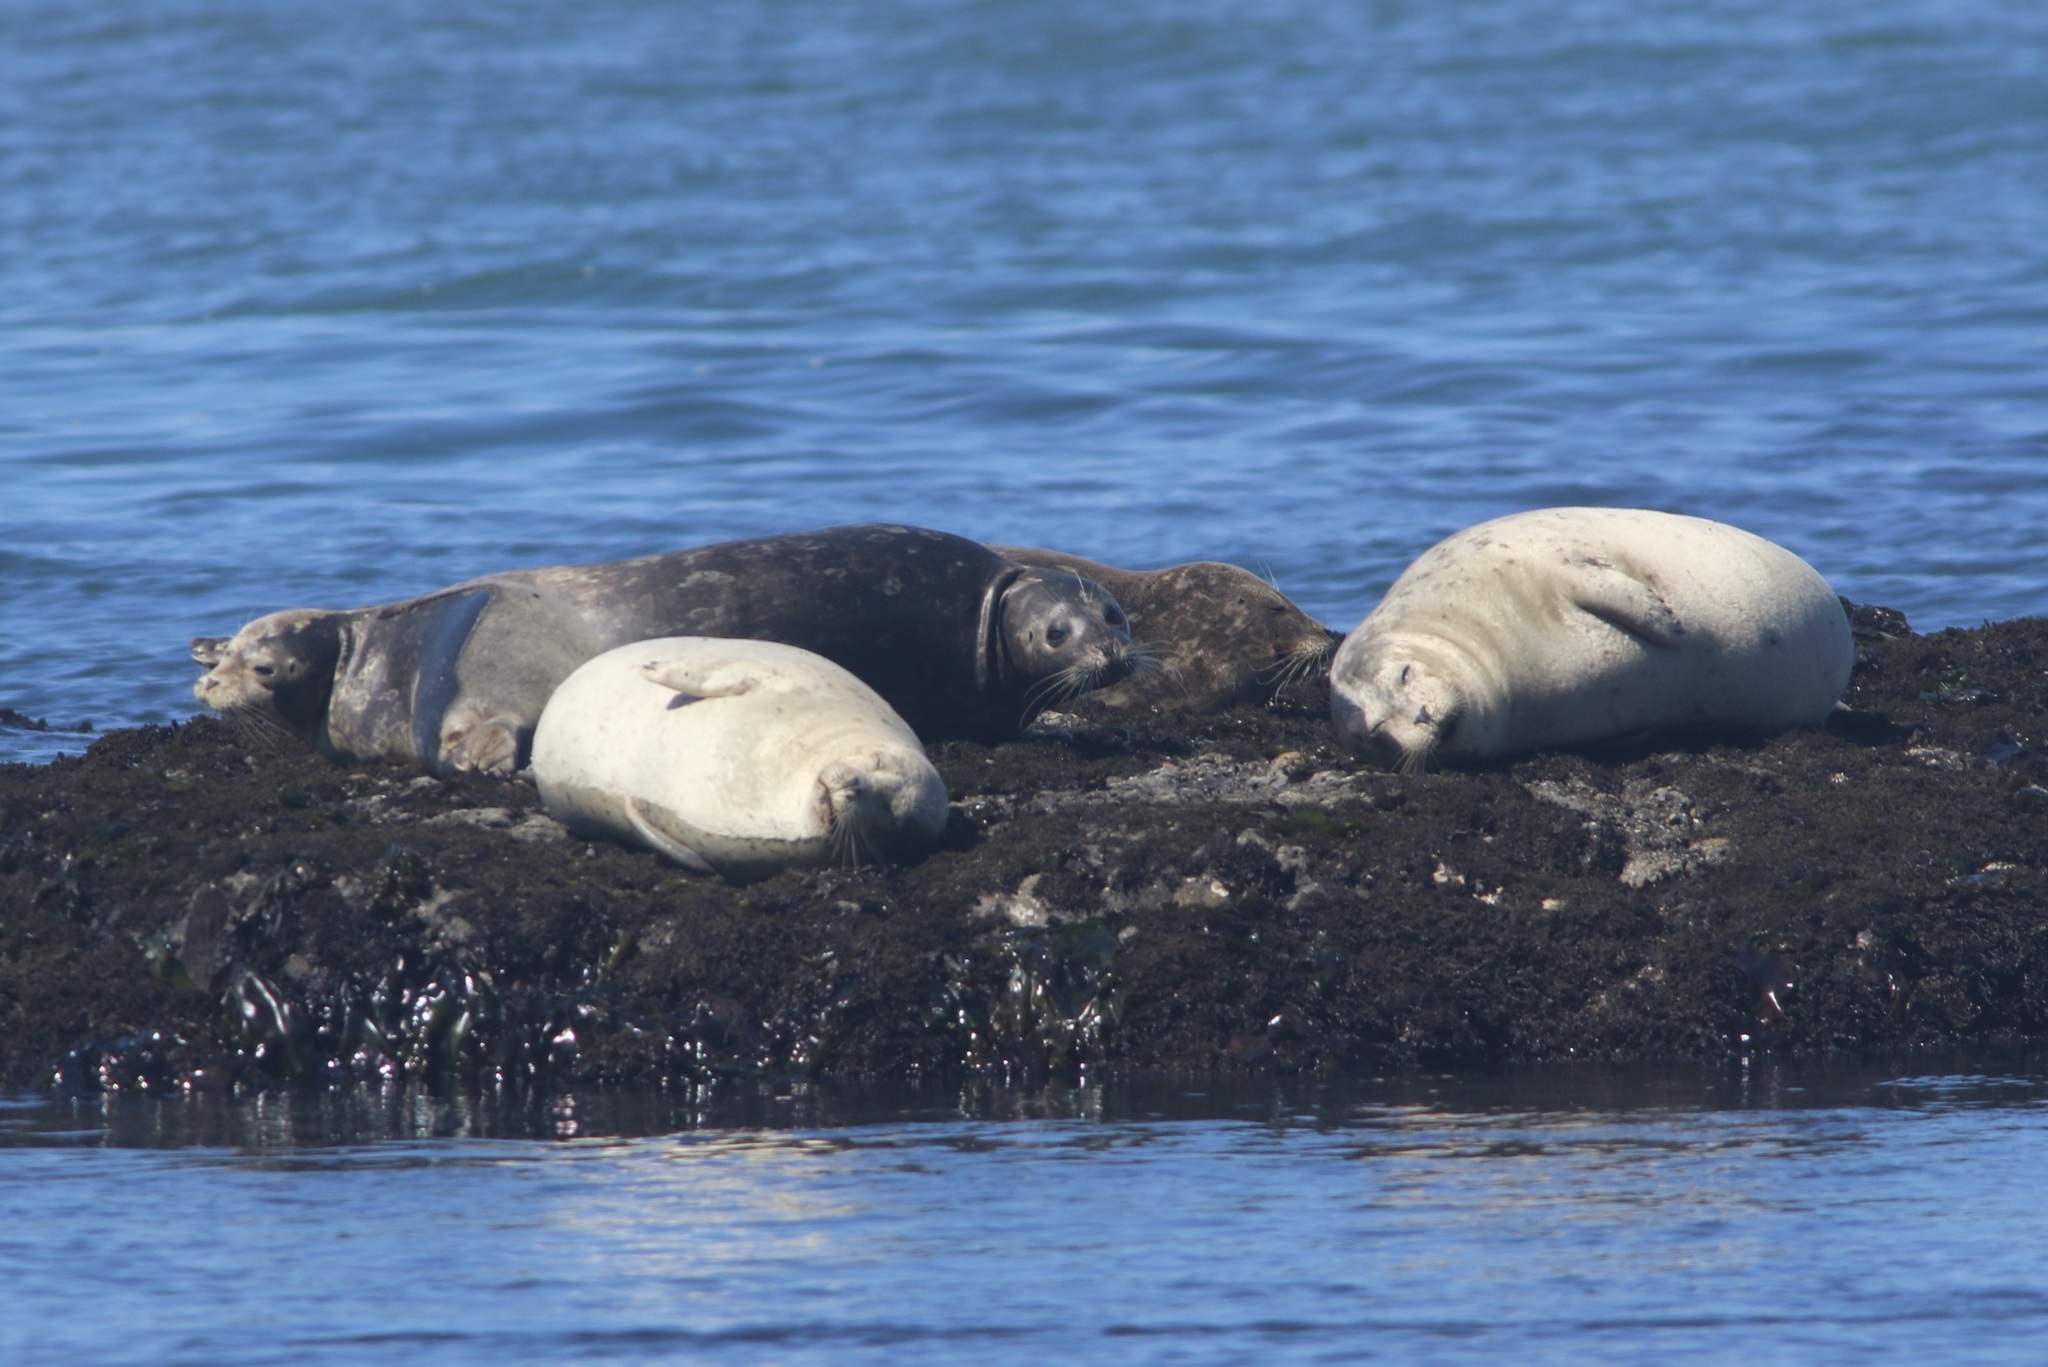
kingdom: Animalia
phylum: Chordata
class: Mammalia
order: Carnivora
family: Phocidae
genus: Phoca
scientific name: Phoca vitulina
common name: Harbor seal
